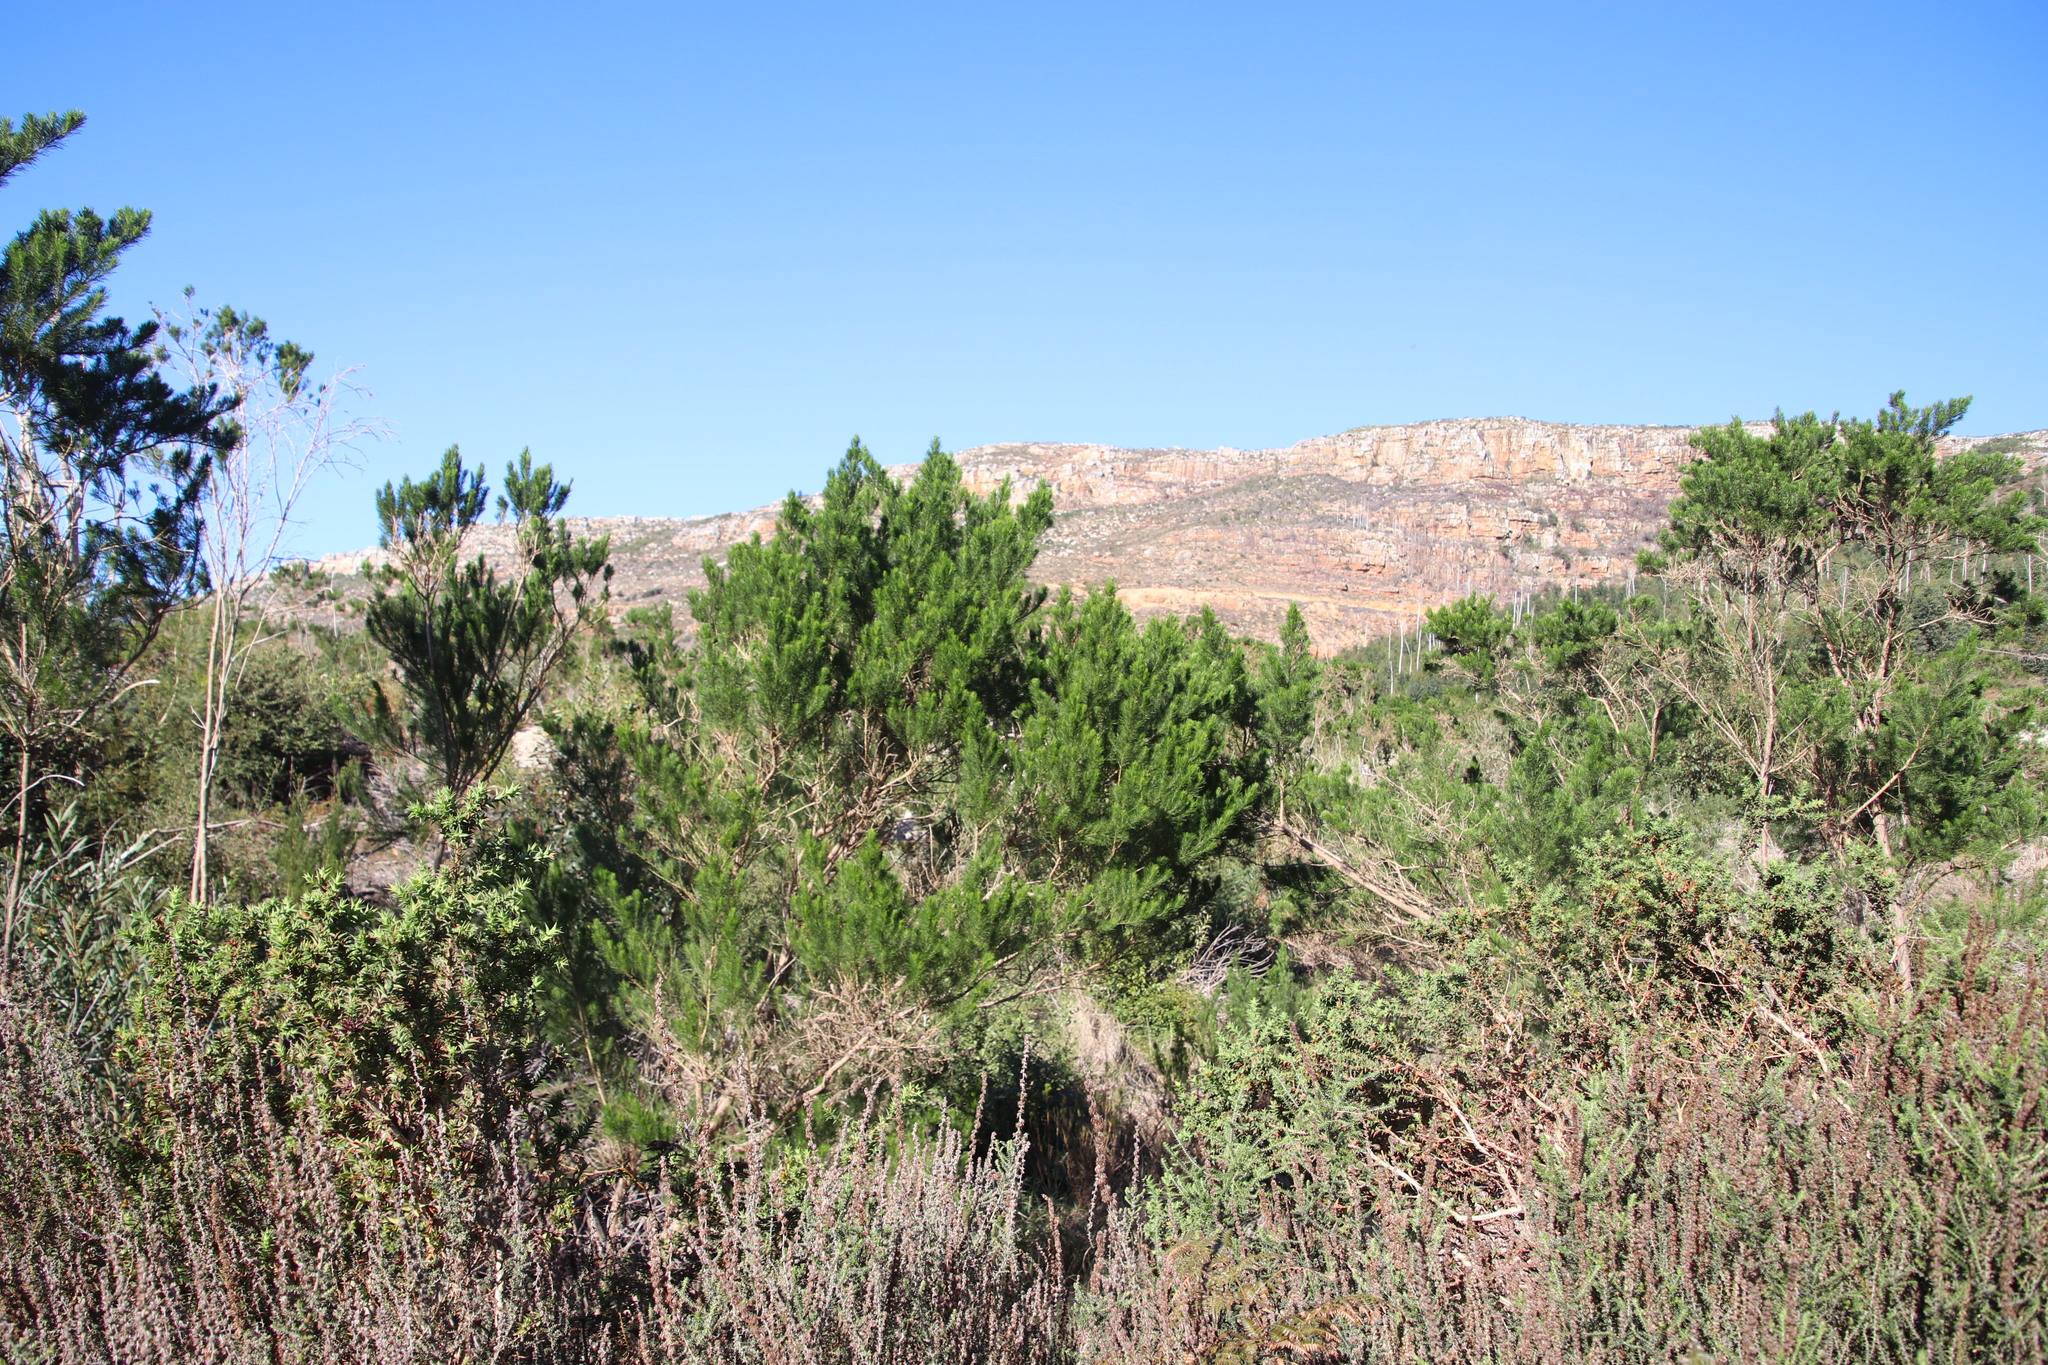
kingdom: Plantae
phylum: Tracheophyta
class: Magnoliopsida
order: Fabales
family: Fabaceae
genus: Psoralea
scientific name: Psoralea pinnata
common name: African scurfpea
